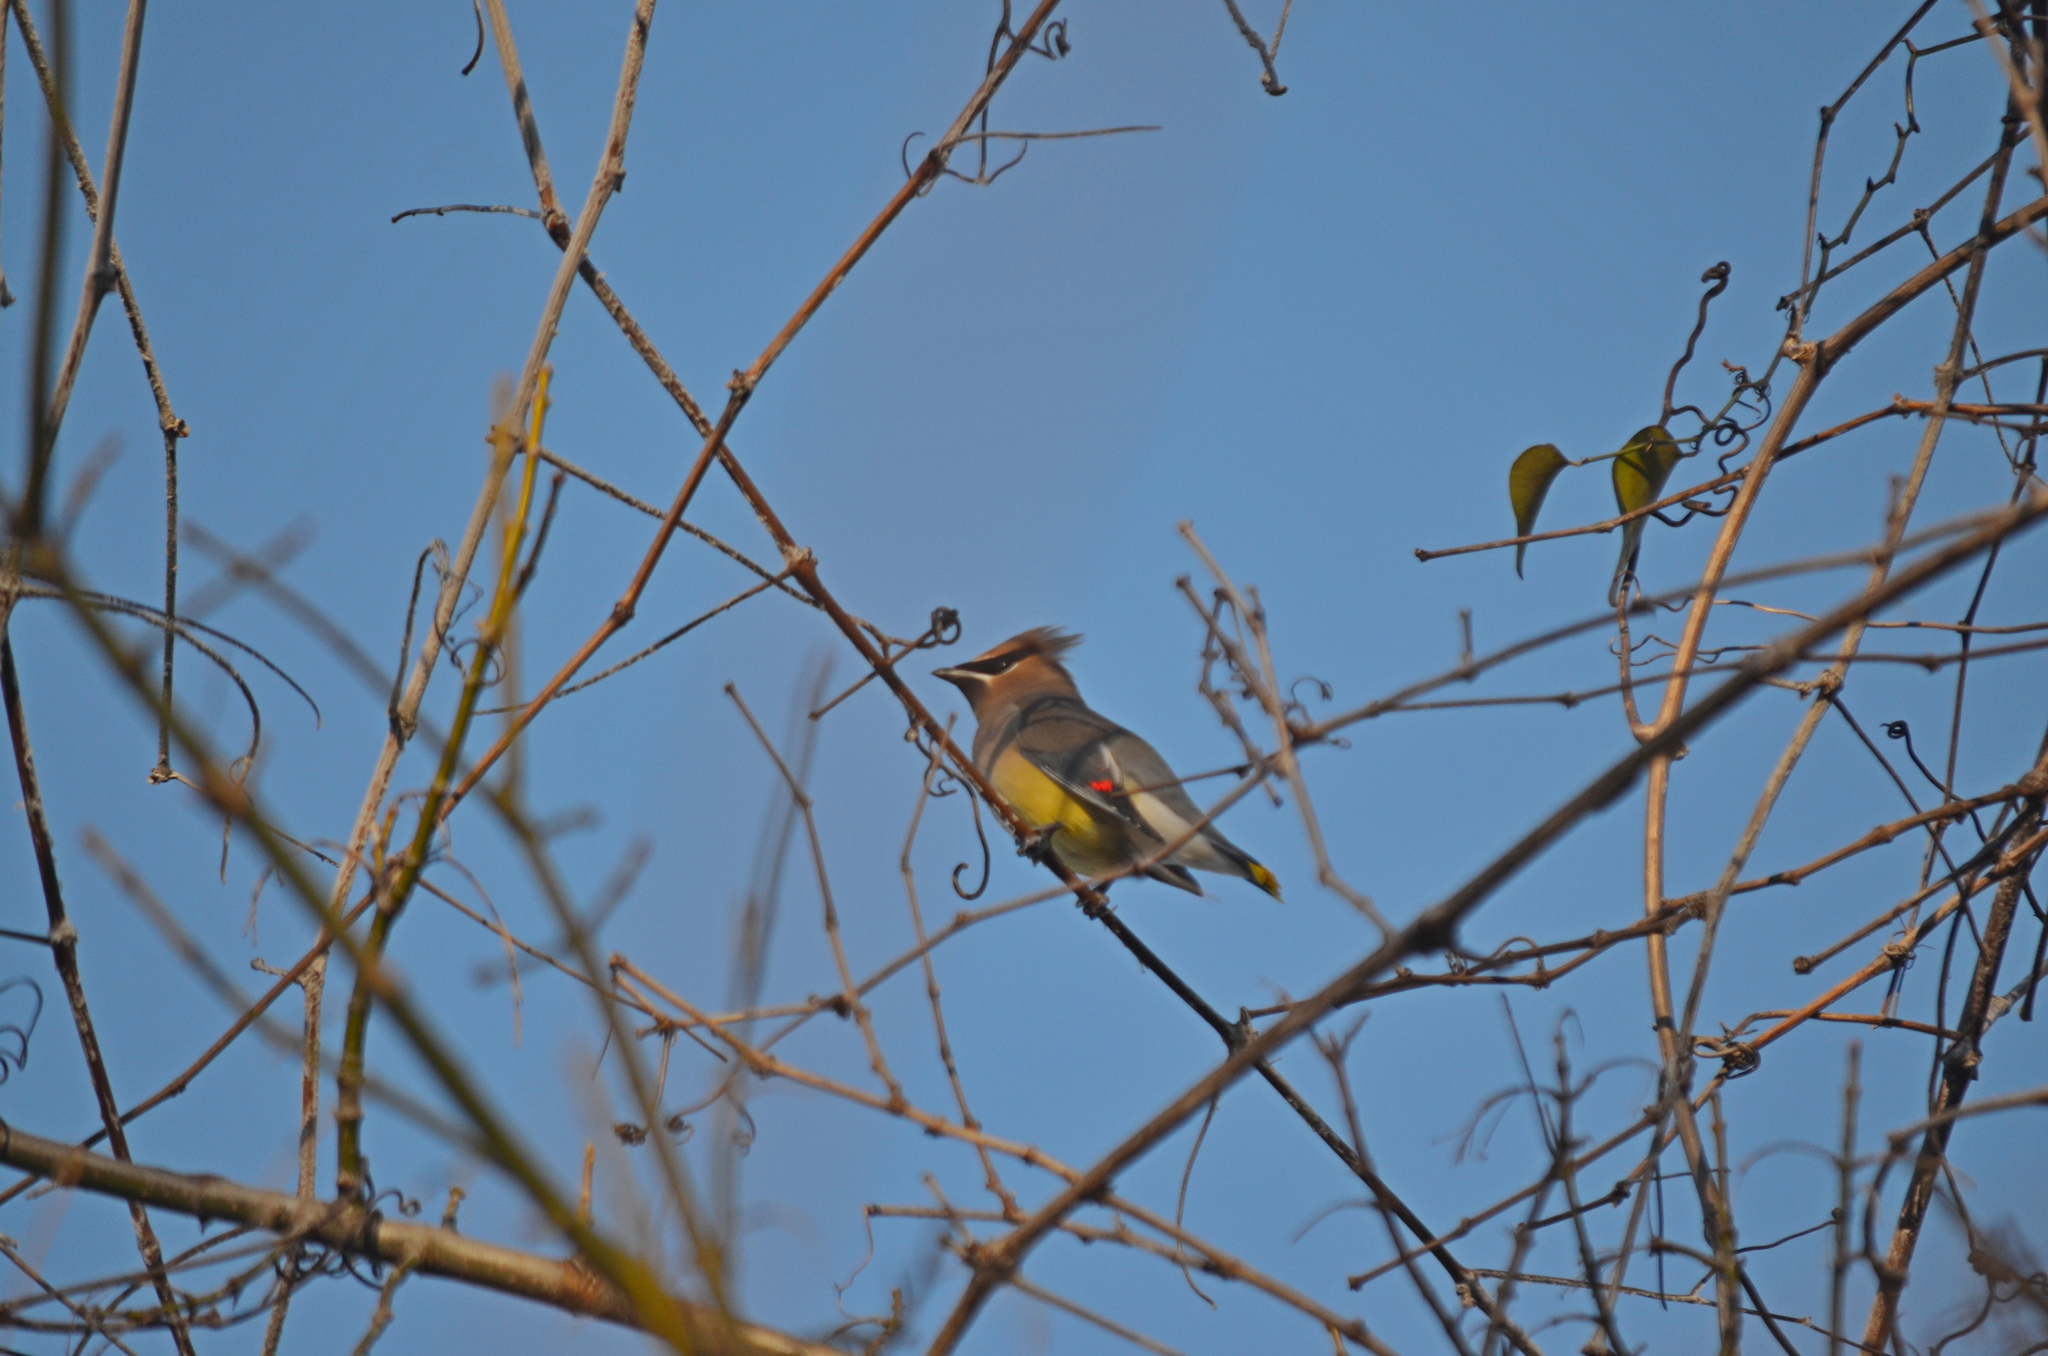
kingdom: Animalia
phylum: Chordata
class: Aves
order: Passeriformes
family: Bombycillidae
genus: Bombycilla
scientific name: Bombycilla cedrorum
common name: Cedar waxwing
